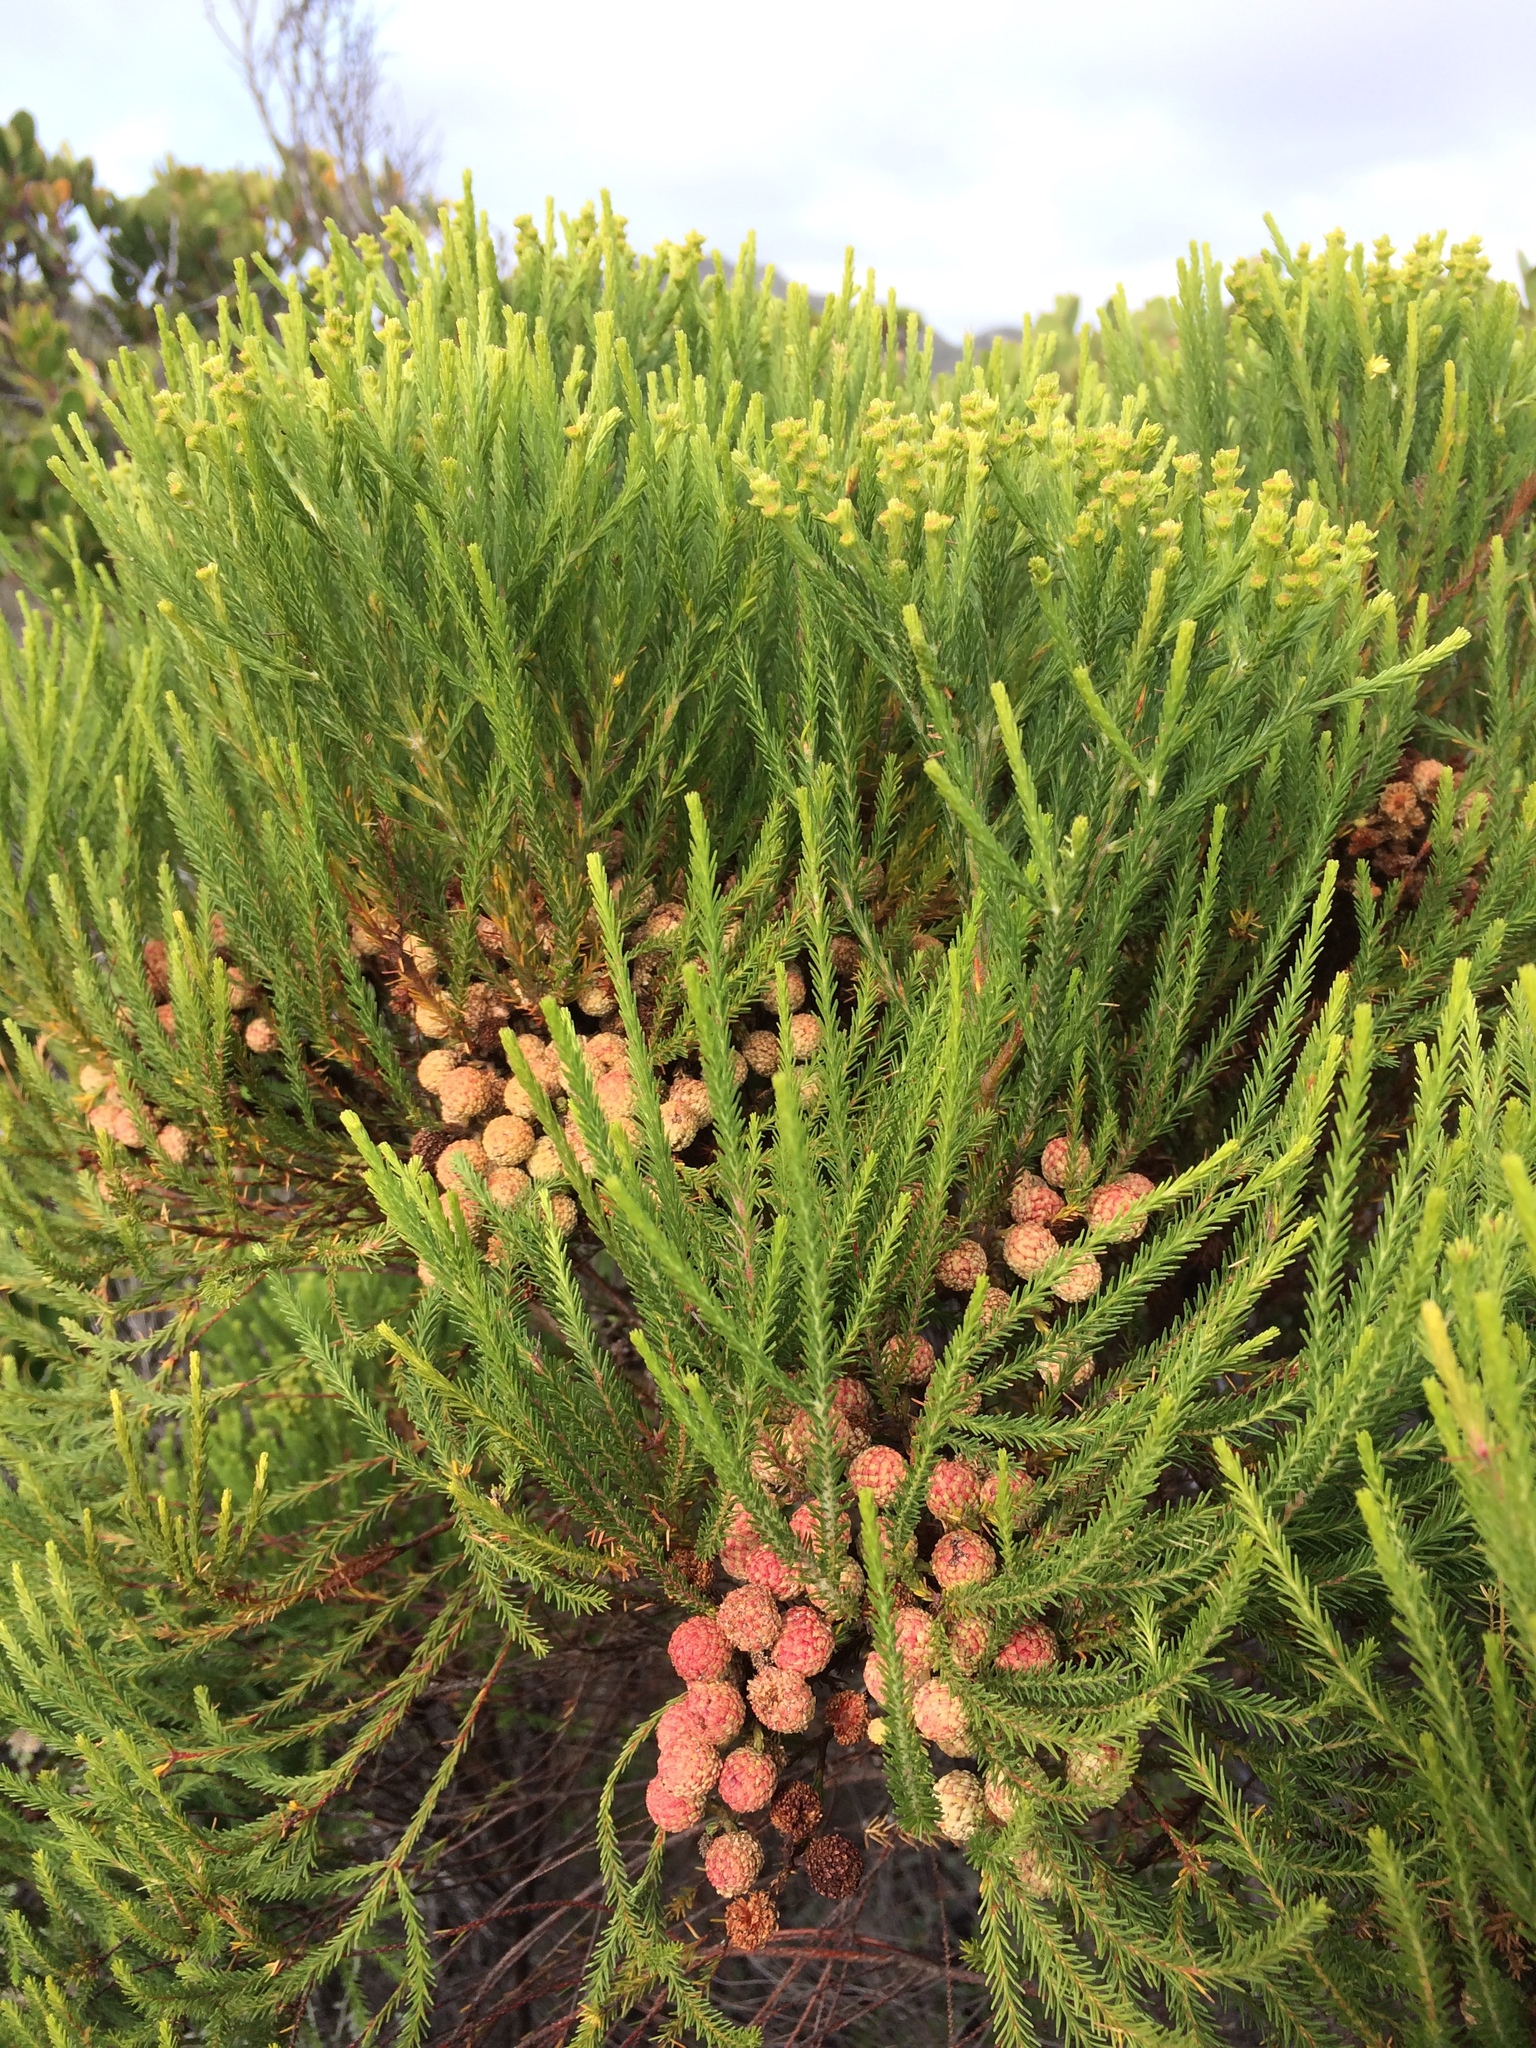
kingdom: Plantae
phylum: Tracheophyta
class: Magnoliopsida
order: Bruniales
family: Bruniaceae
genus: Berzelia
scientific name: Berzelia lanuginosa
